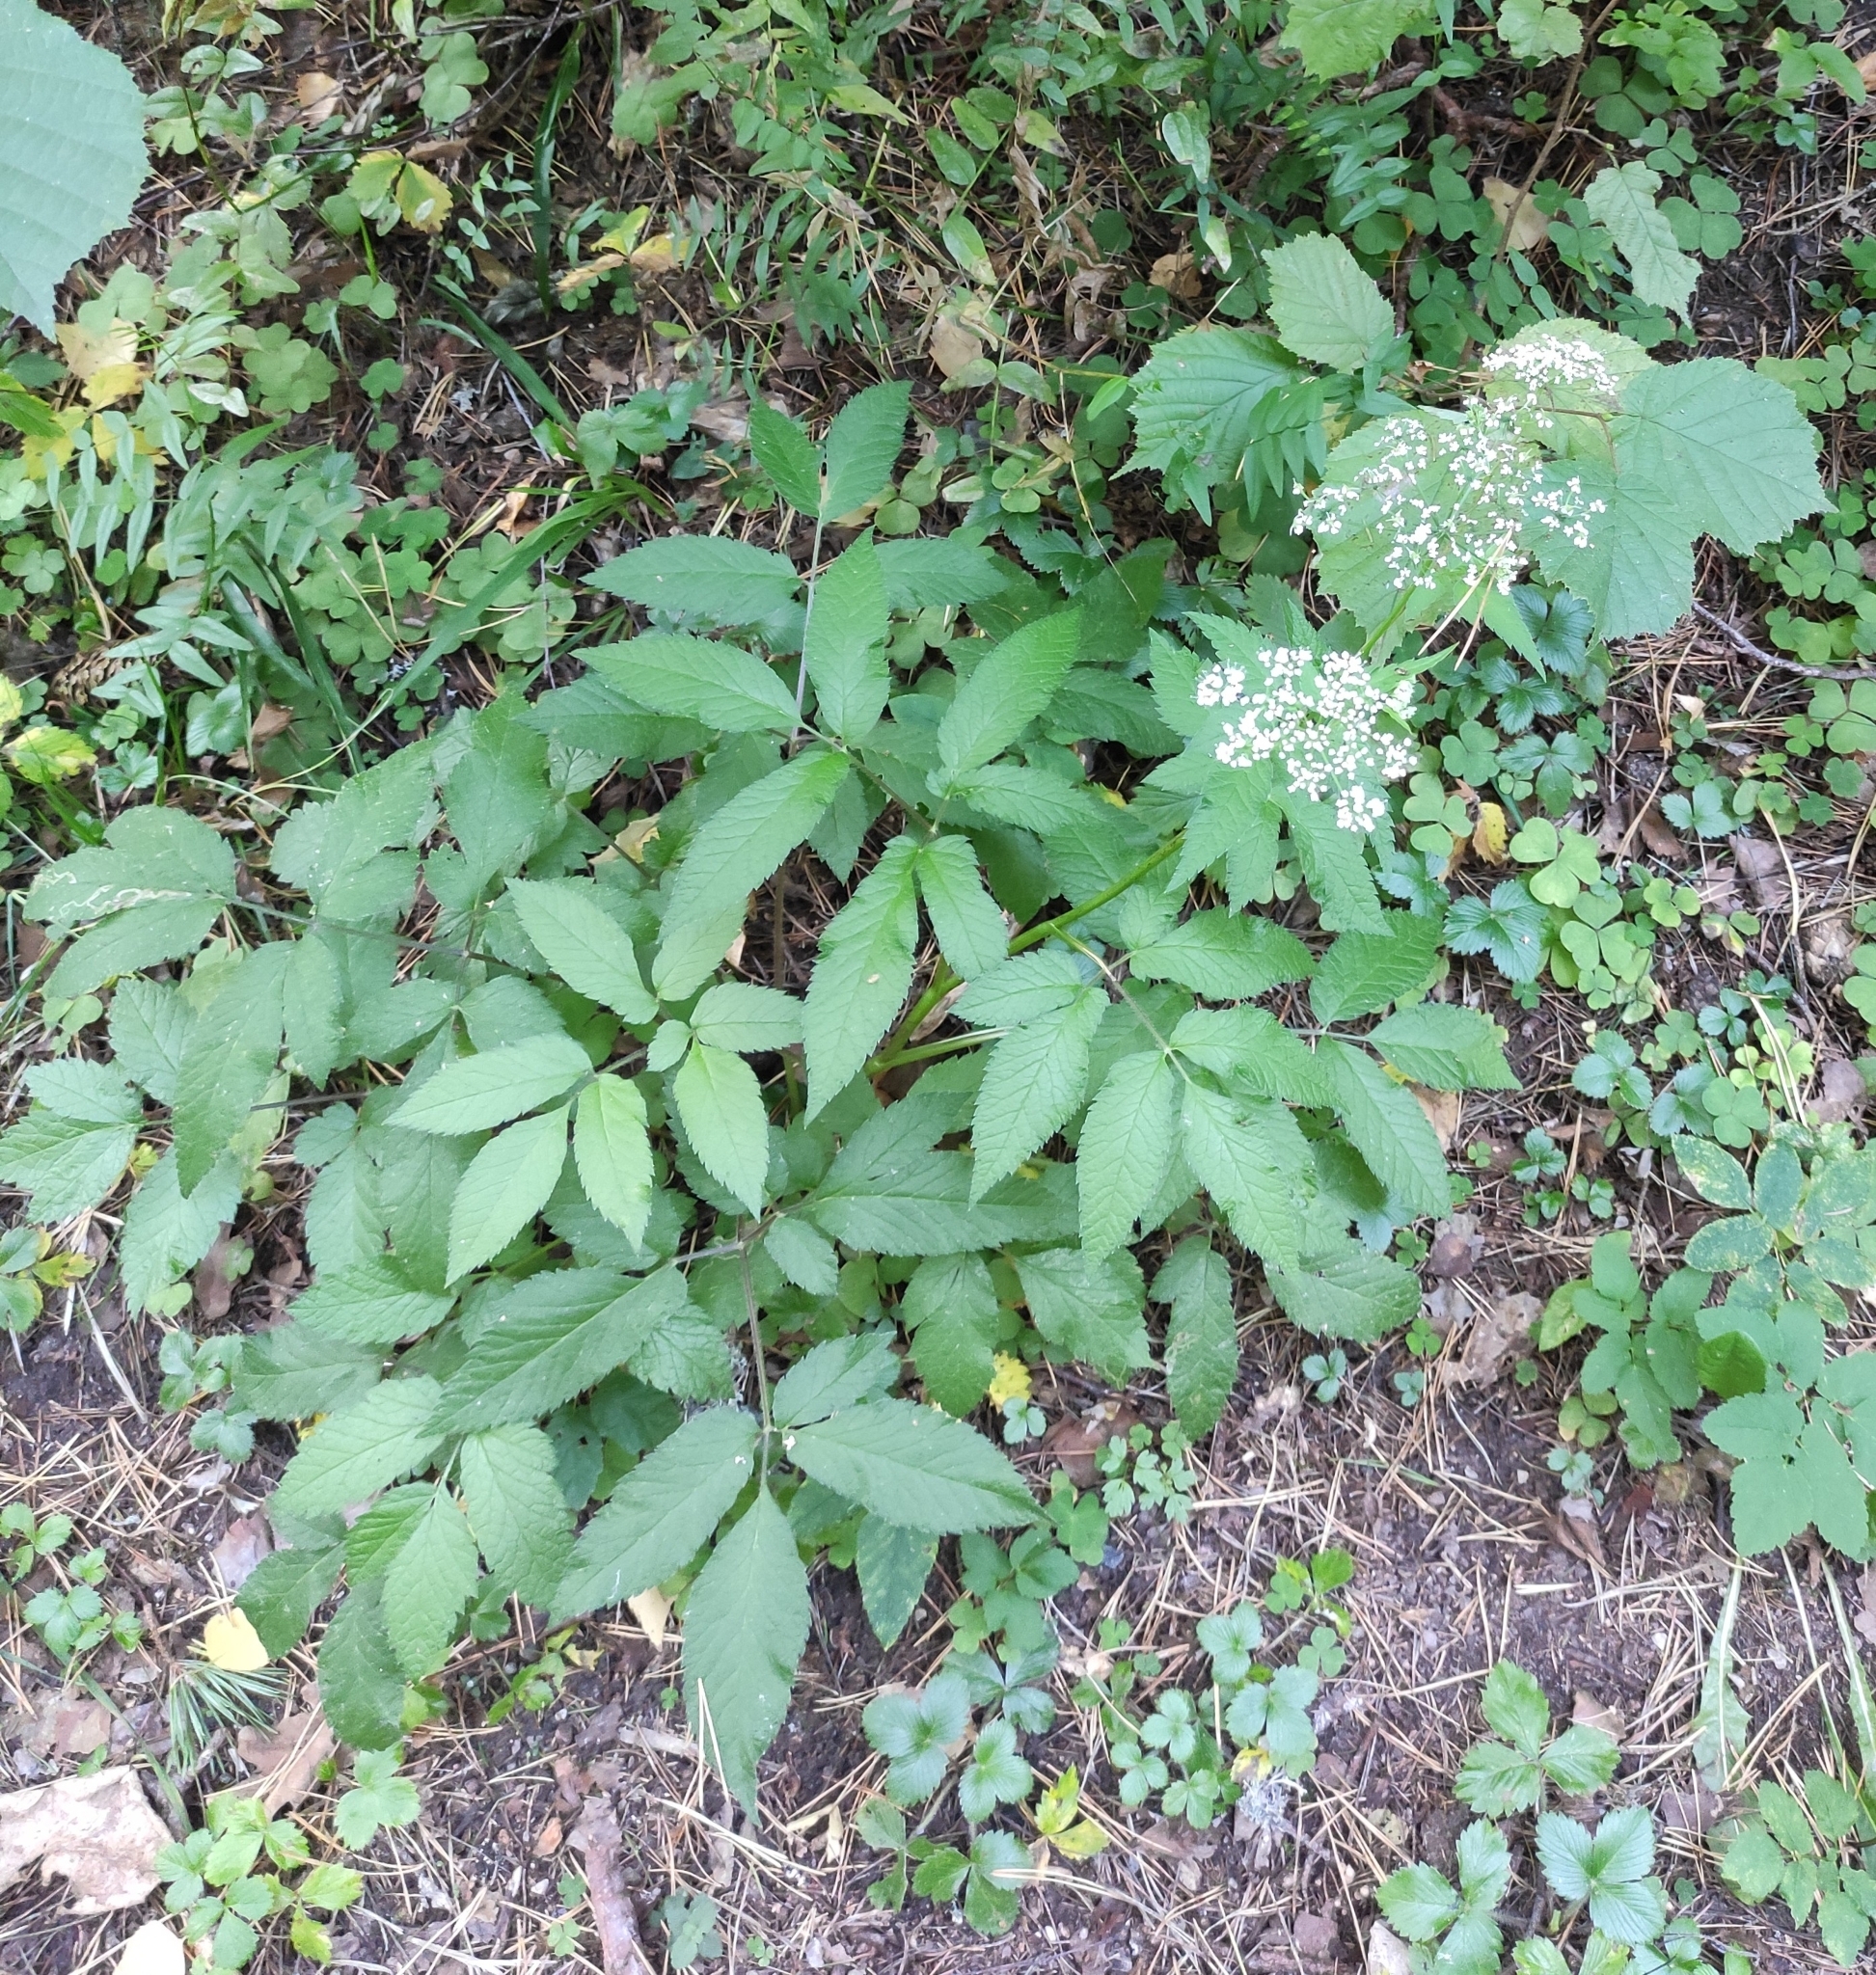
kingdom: Plantae
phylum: Tracheophyta
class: Magnoliopsida
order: Apiales
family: Apiaceae
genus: Chaerophyllum
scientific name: Chaerophyllum aromaticum
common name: Broadleaf chervil
